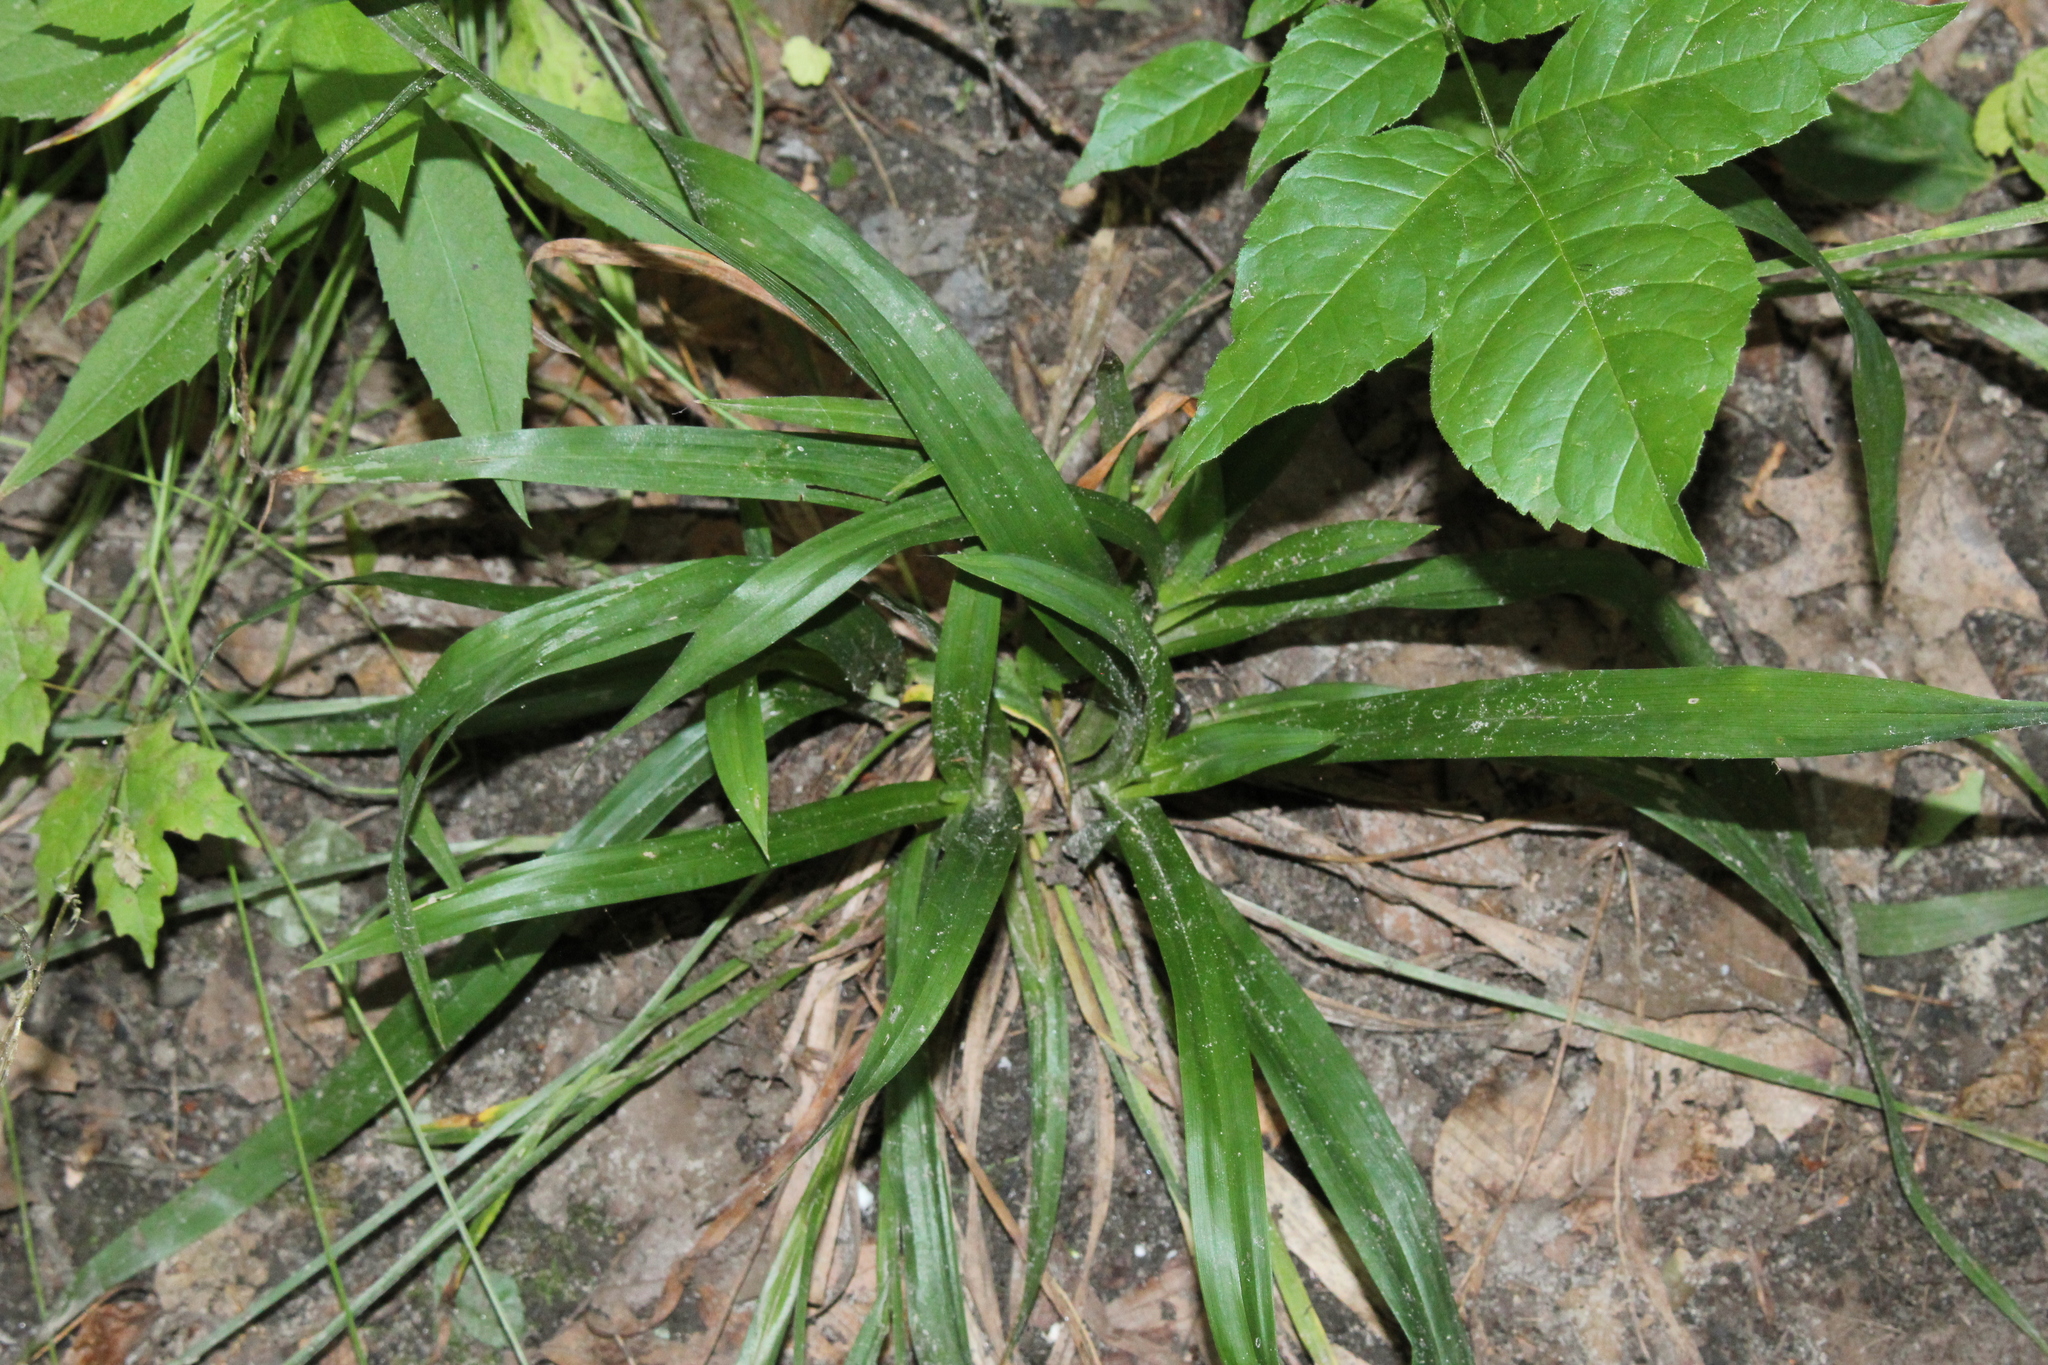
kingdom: Plantae
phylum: Tracheophyta
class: Liliopsida
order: Poales
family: Cyperaceae
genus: Carex
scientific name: Carex laxiflora
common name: Beech wood sedge
